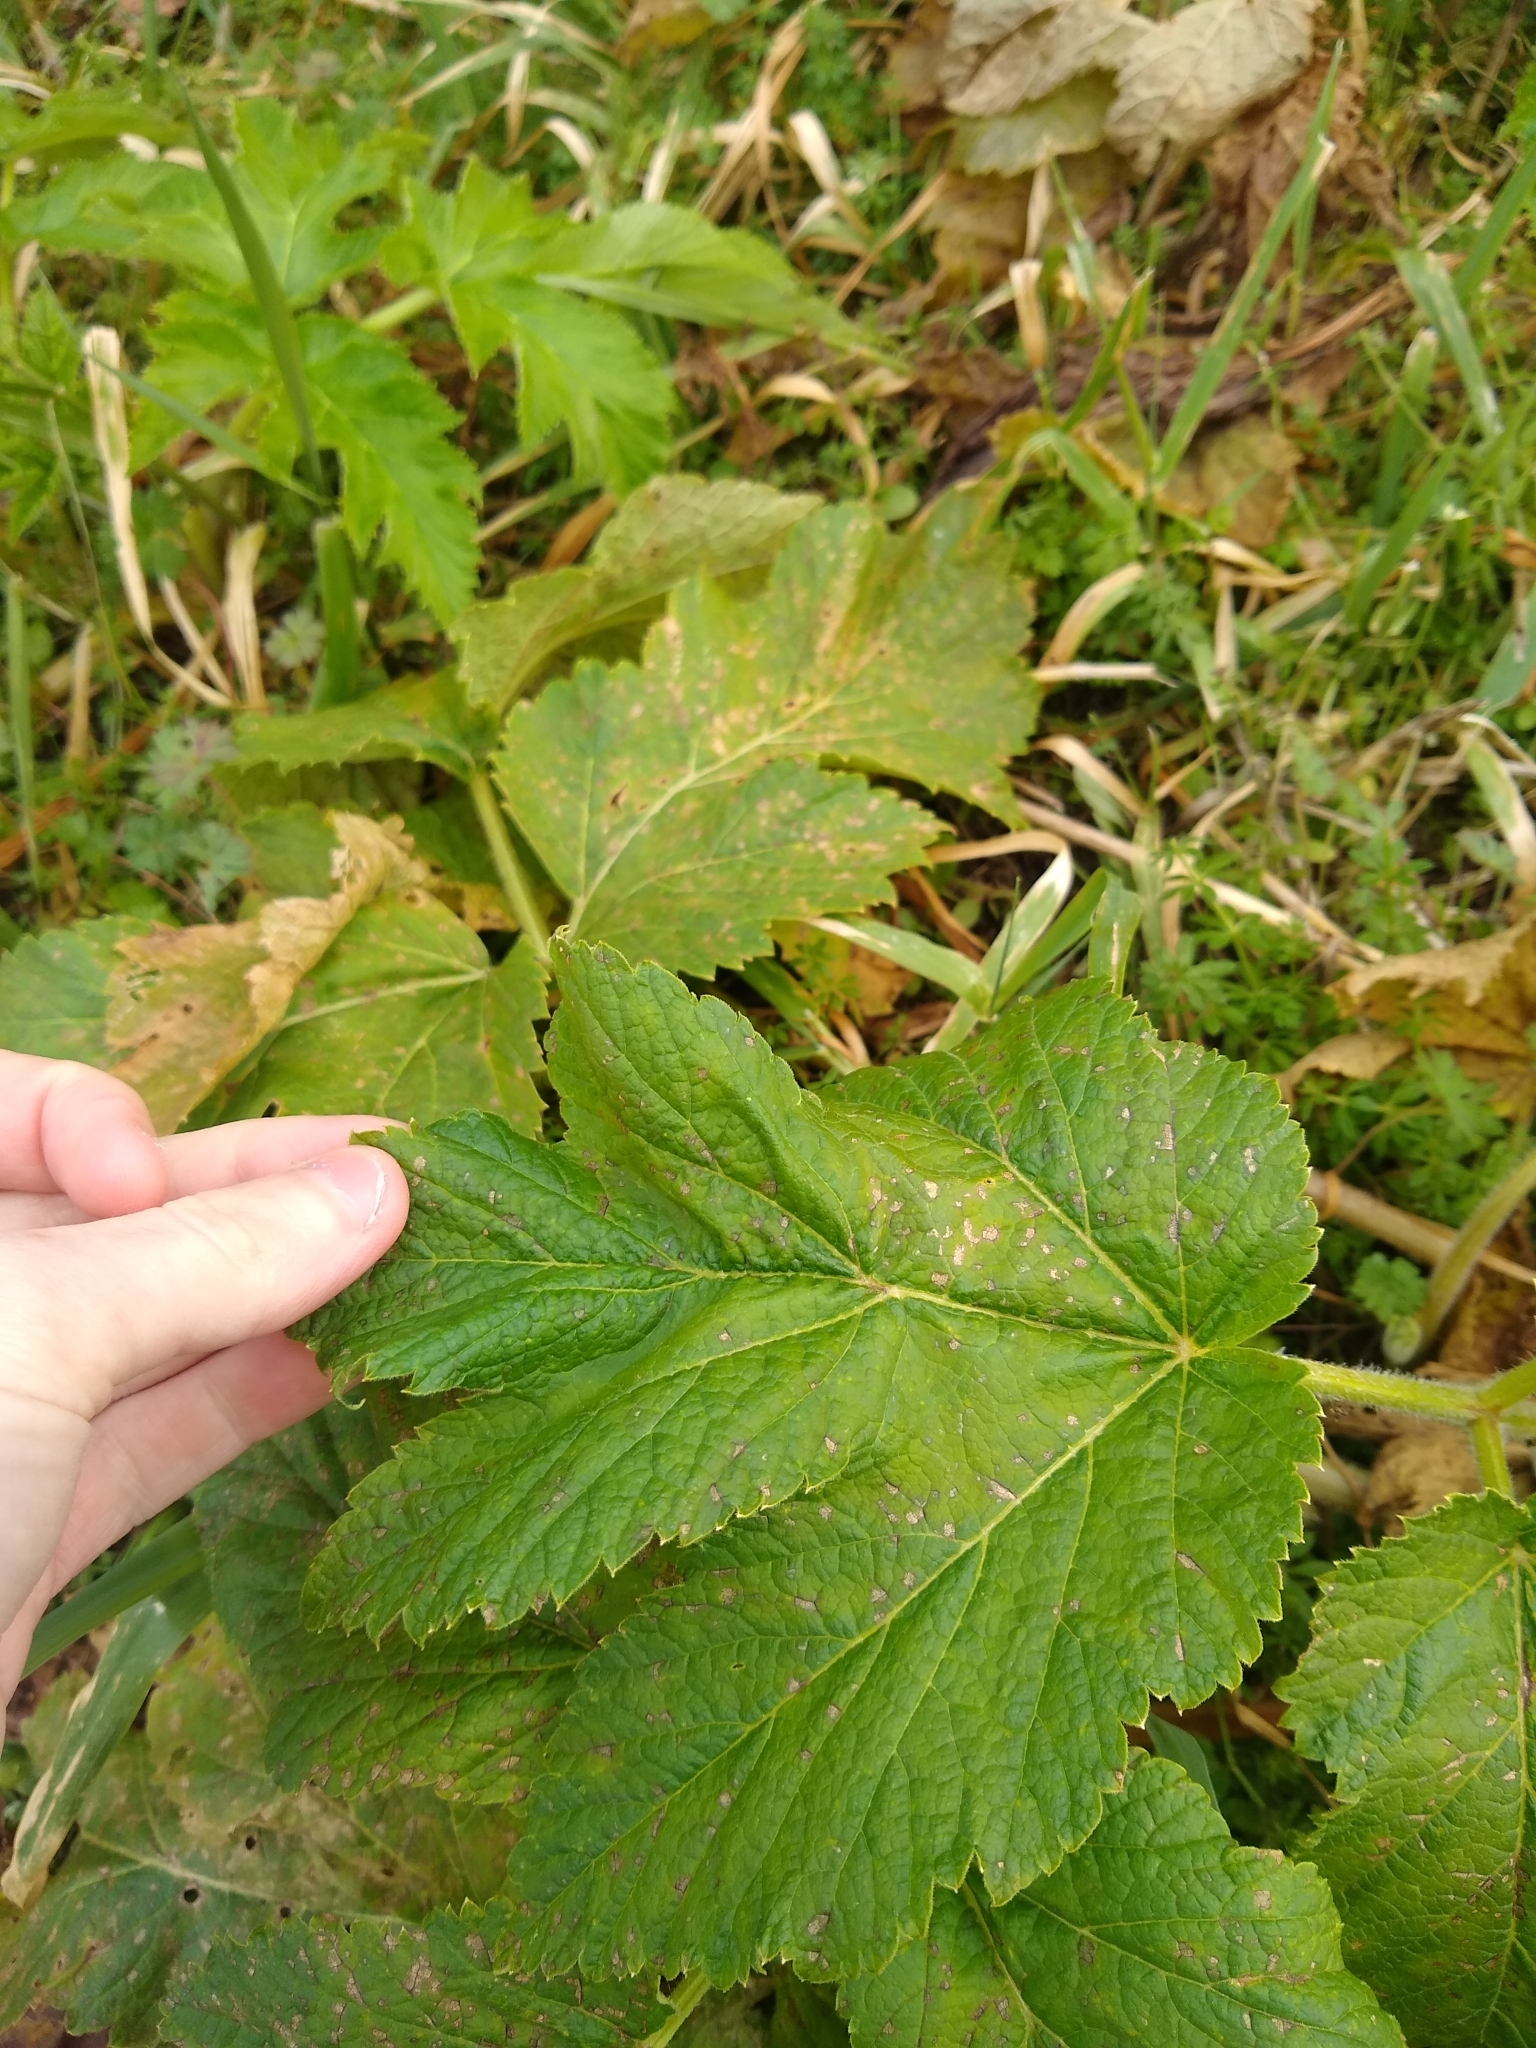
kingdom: Plantae
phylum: Tracheophyta
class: Magnoliopsida
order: Apiales
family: Apiaceae
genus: Heracleum
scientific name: Heracleum maximum
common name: American cow parsnip
